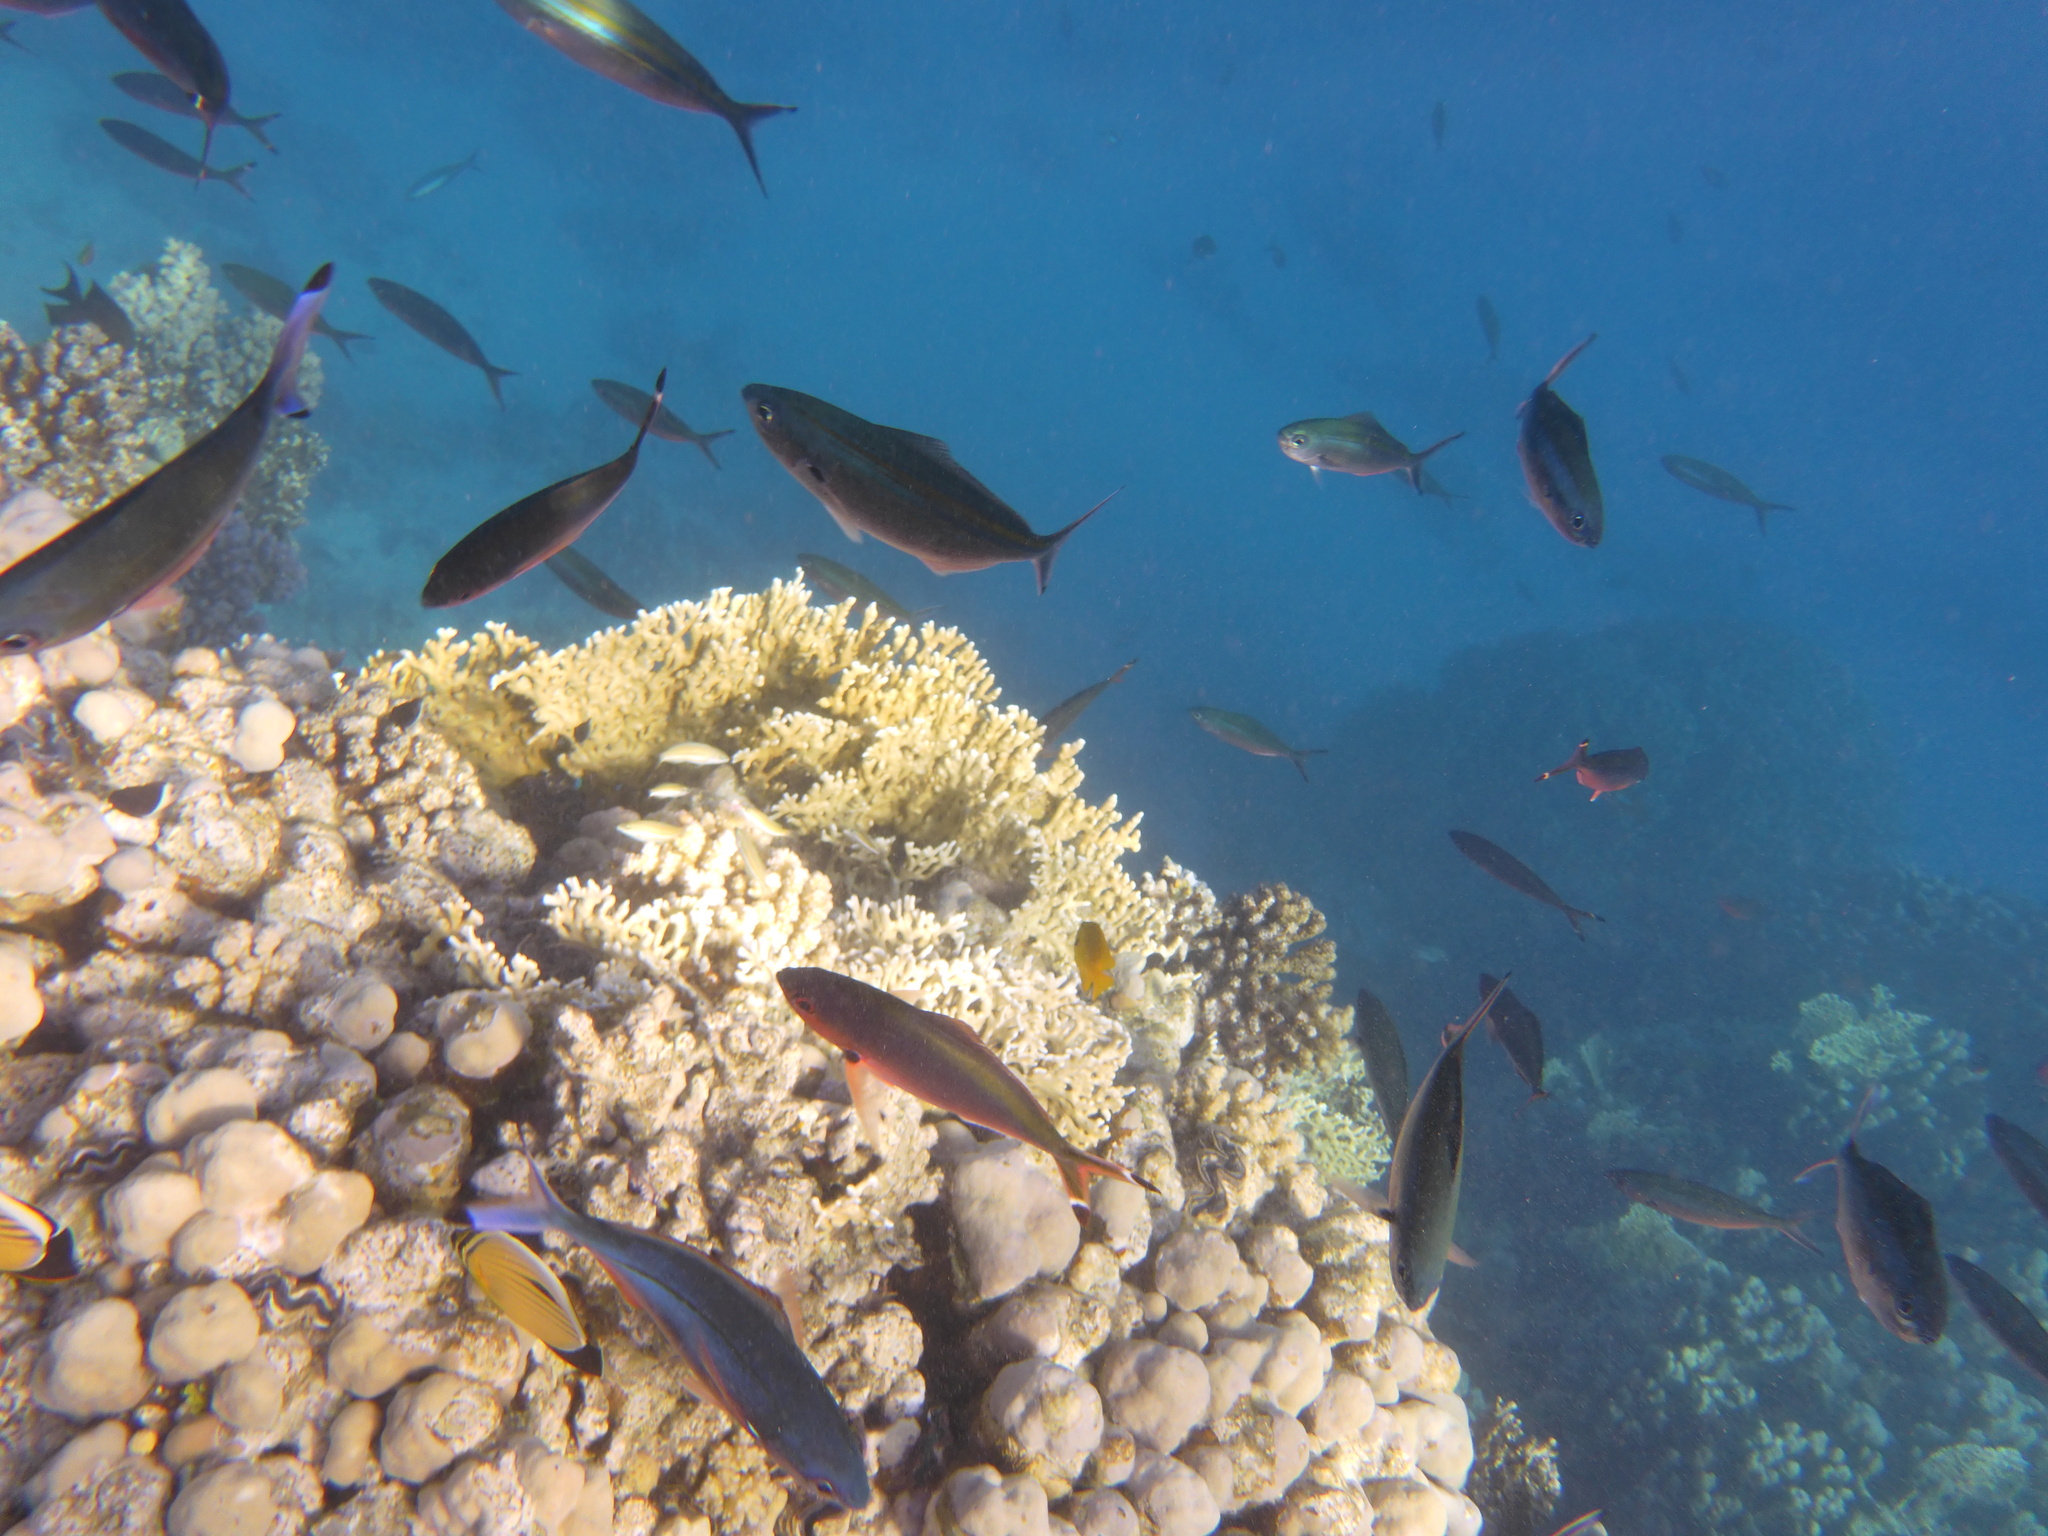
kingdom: Animalia
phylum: Chordata
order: Perciformes
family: Caesionidae
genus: Caesio
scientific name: Caesio suevica
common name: Suez fusilier
